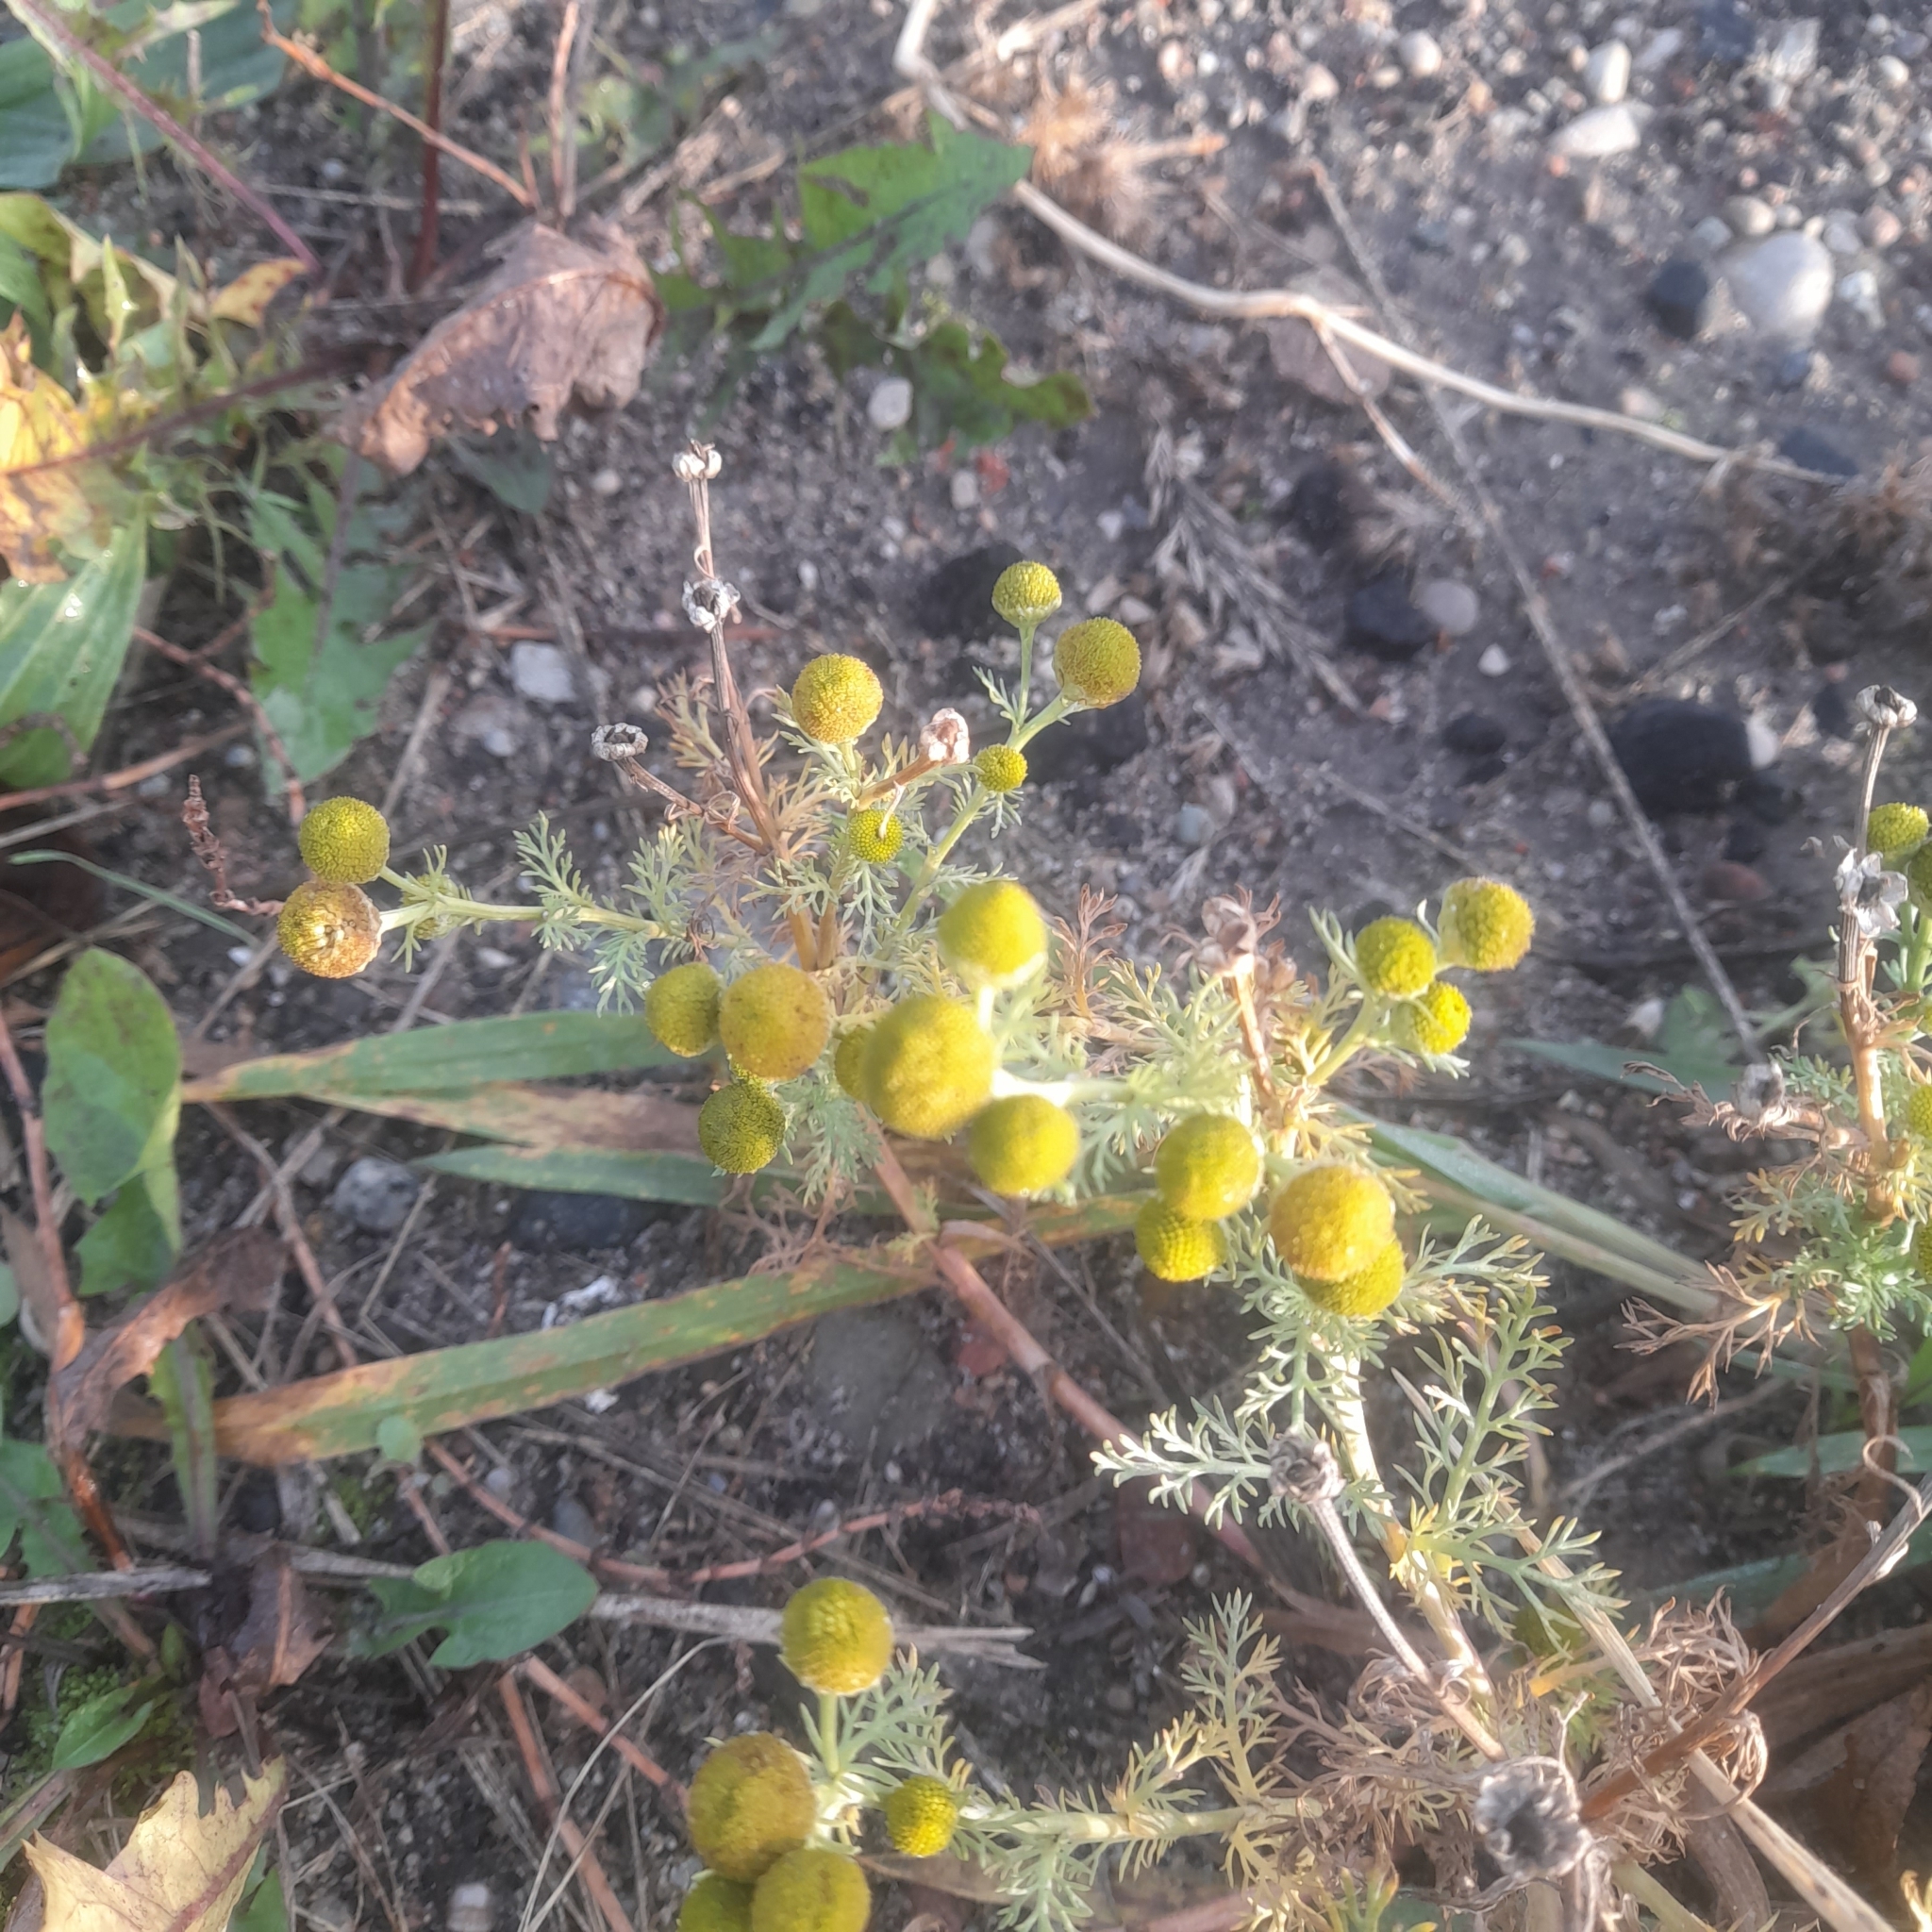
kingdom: Plantae
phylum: Tracheophyta
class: Magnoliopsida
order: Asterales
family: Asteraceae
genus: Matricaria
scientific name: Matricaria discoidea
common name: Disc mayweed
